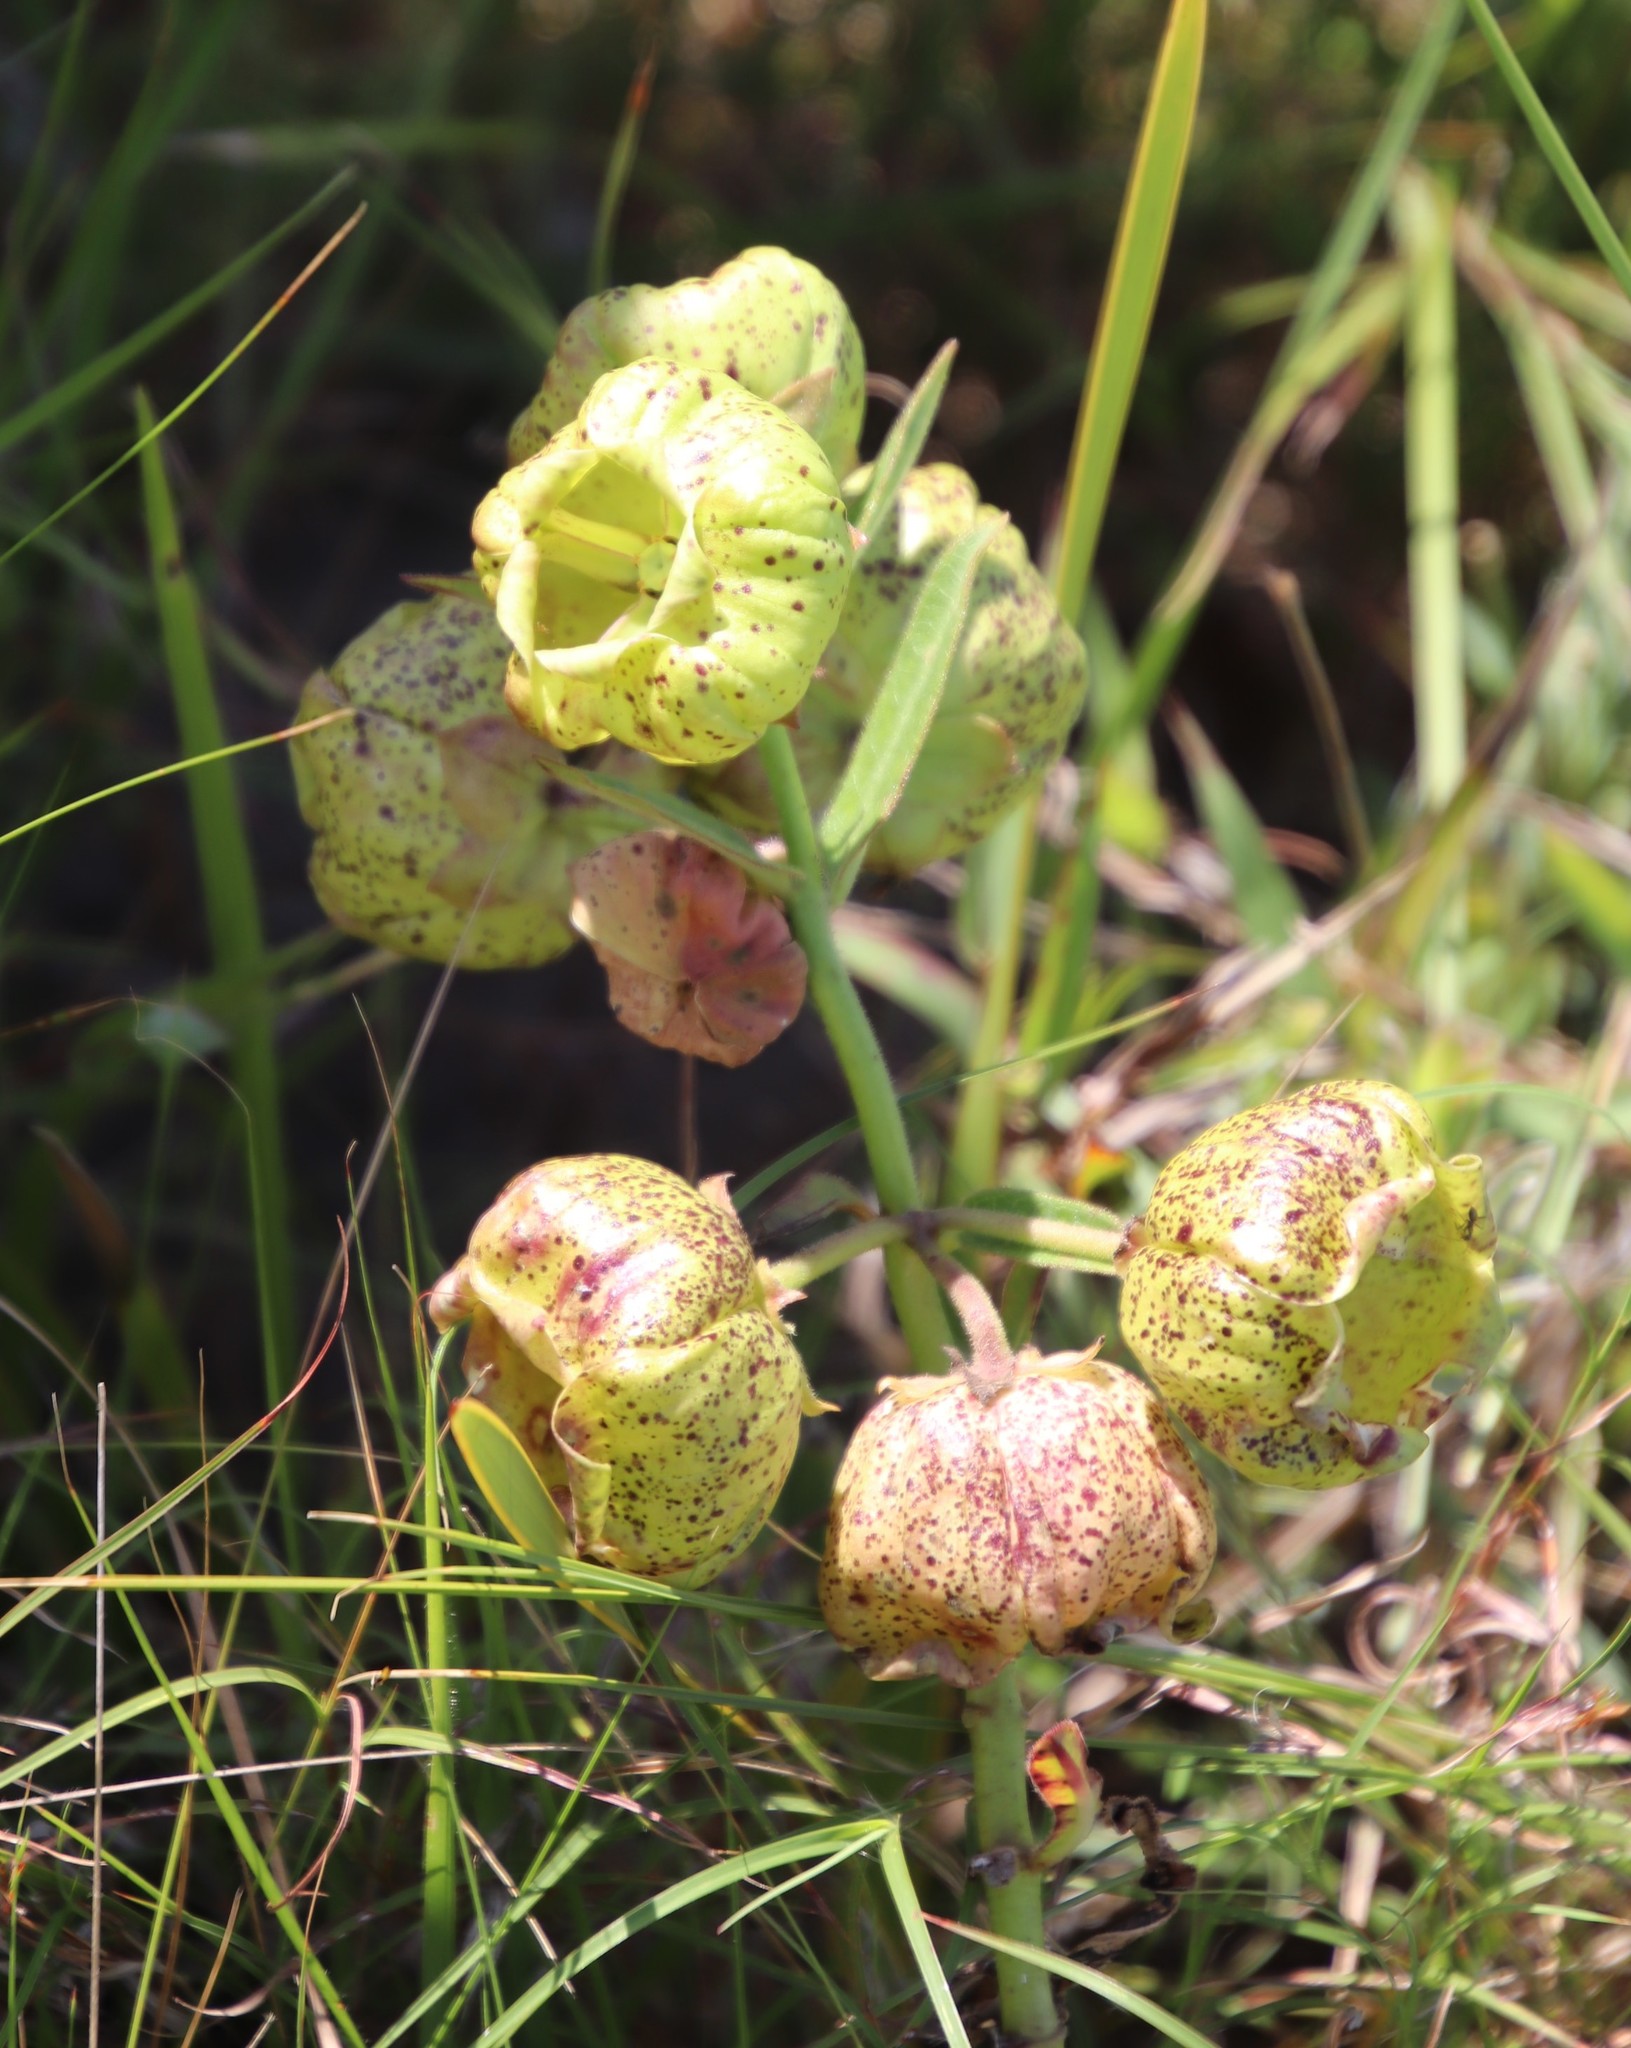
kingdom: Plantae
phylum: Tracheophyta
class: Magnoliopsida
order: Gentianales
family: Apocynaceae
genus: Pachycarpus
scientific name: Pachycarpus grandiflorus
